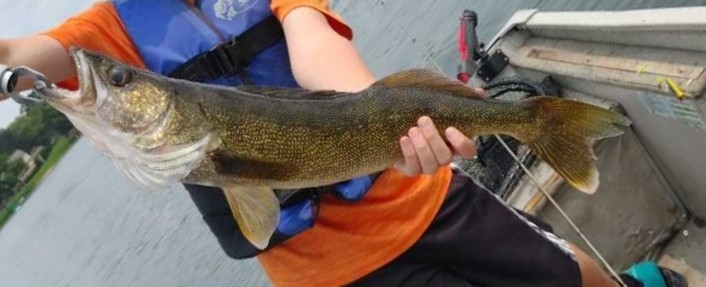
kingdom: Animalia
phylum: Chordata
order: Perciformes
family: Percidae
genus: Sander
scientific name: Sander vitreus
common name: Walleye
